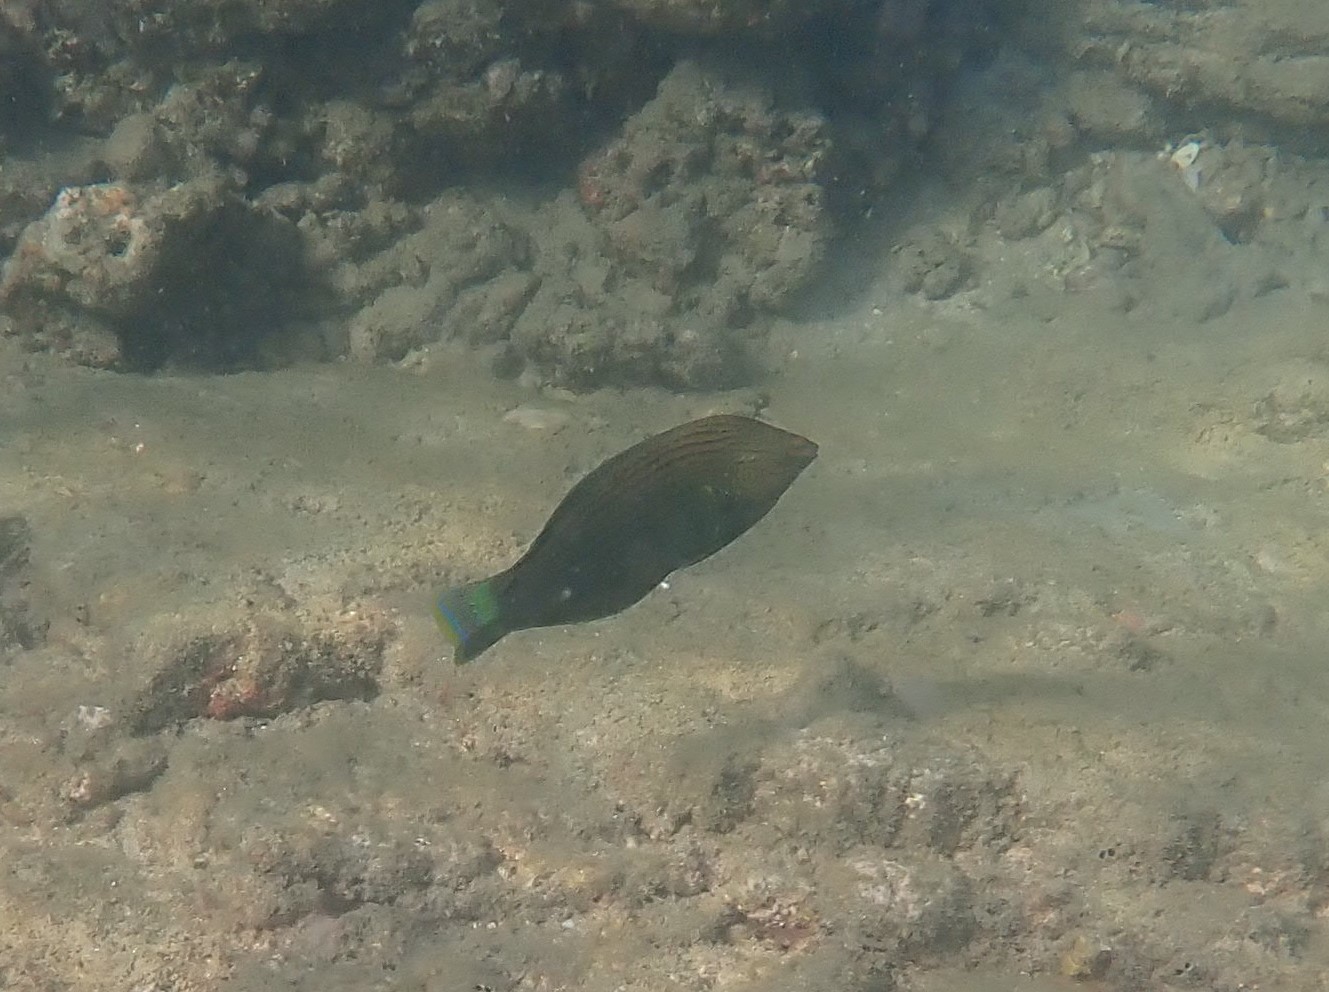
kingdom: Animalia
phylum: Chordata
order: Perciformes
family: Labridae
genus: Halichoeres
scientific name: Halichoeres
